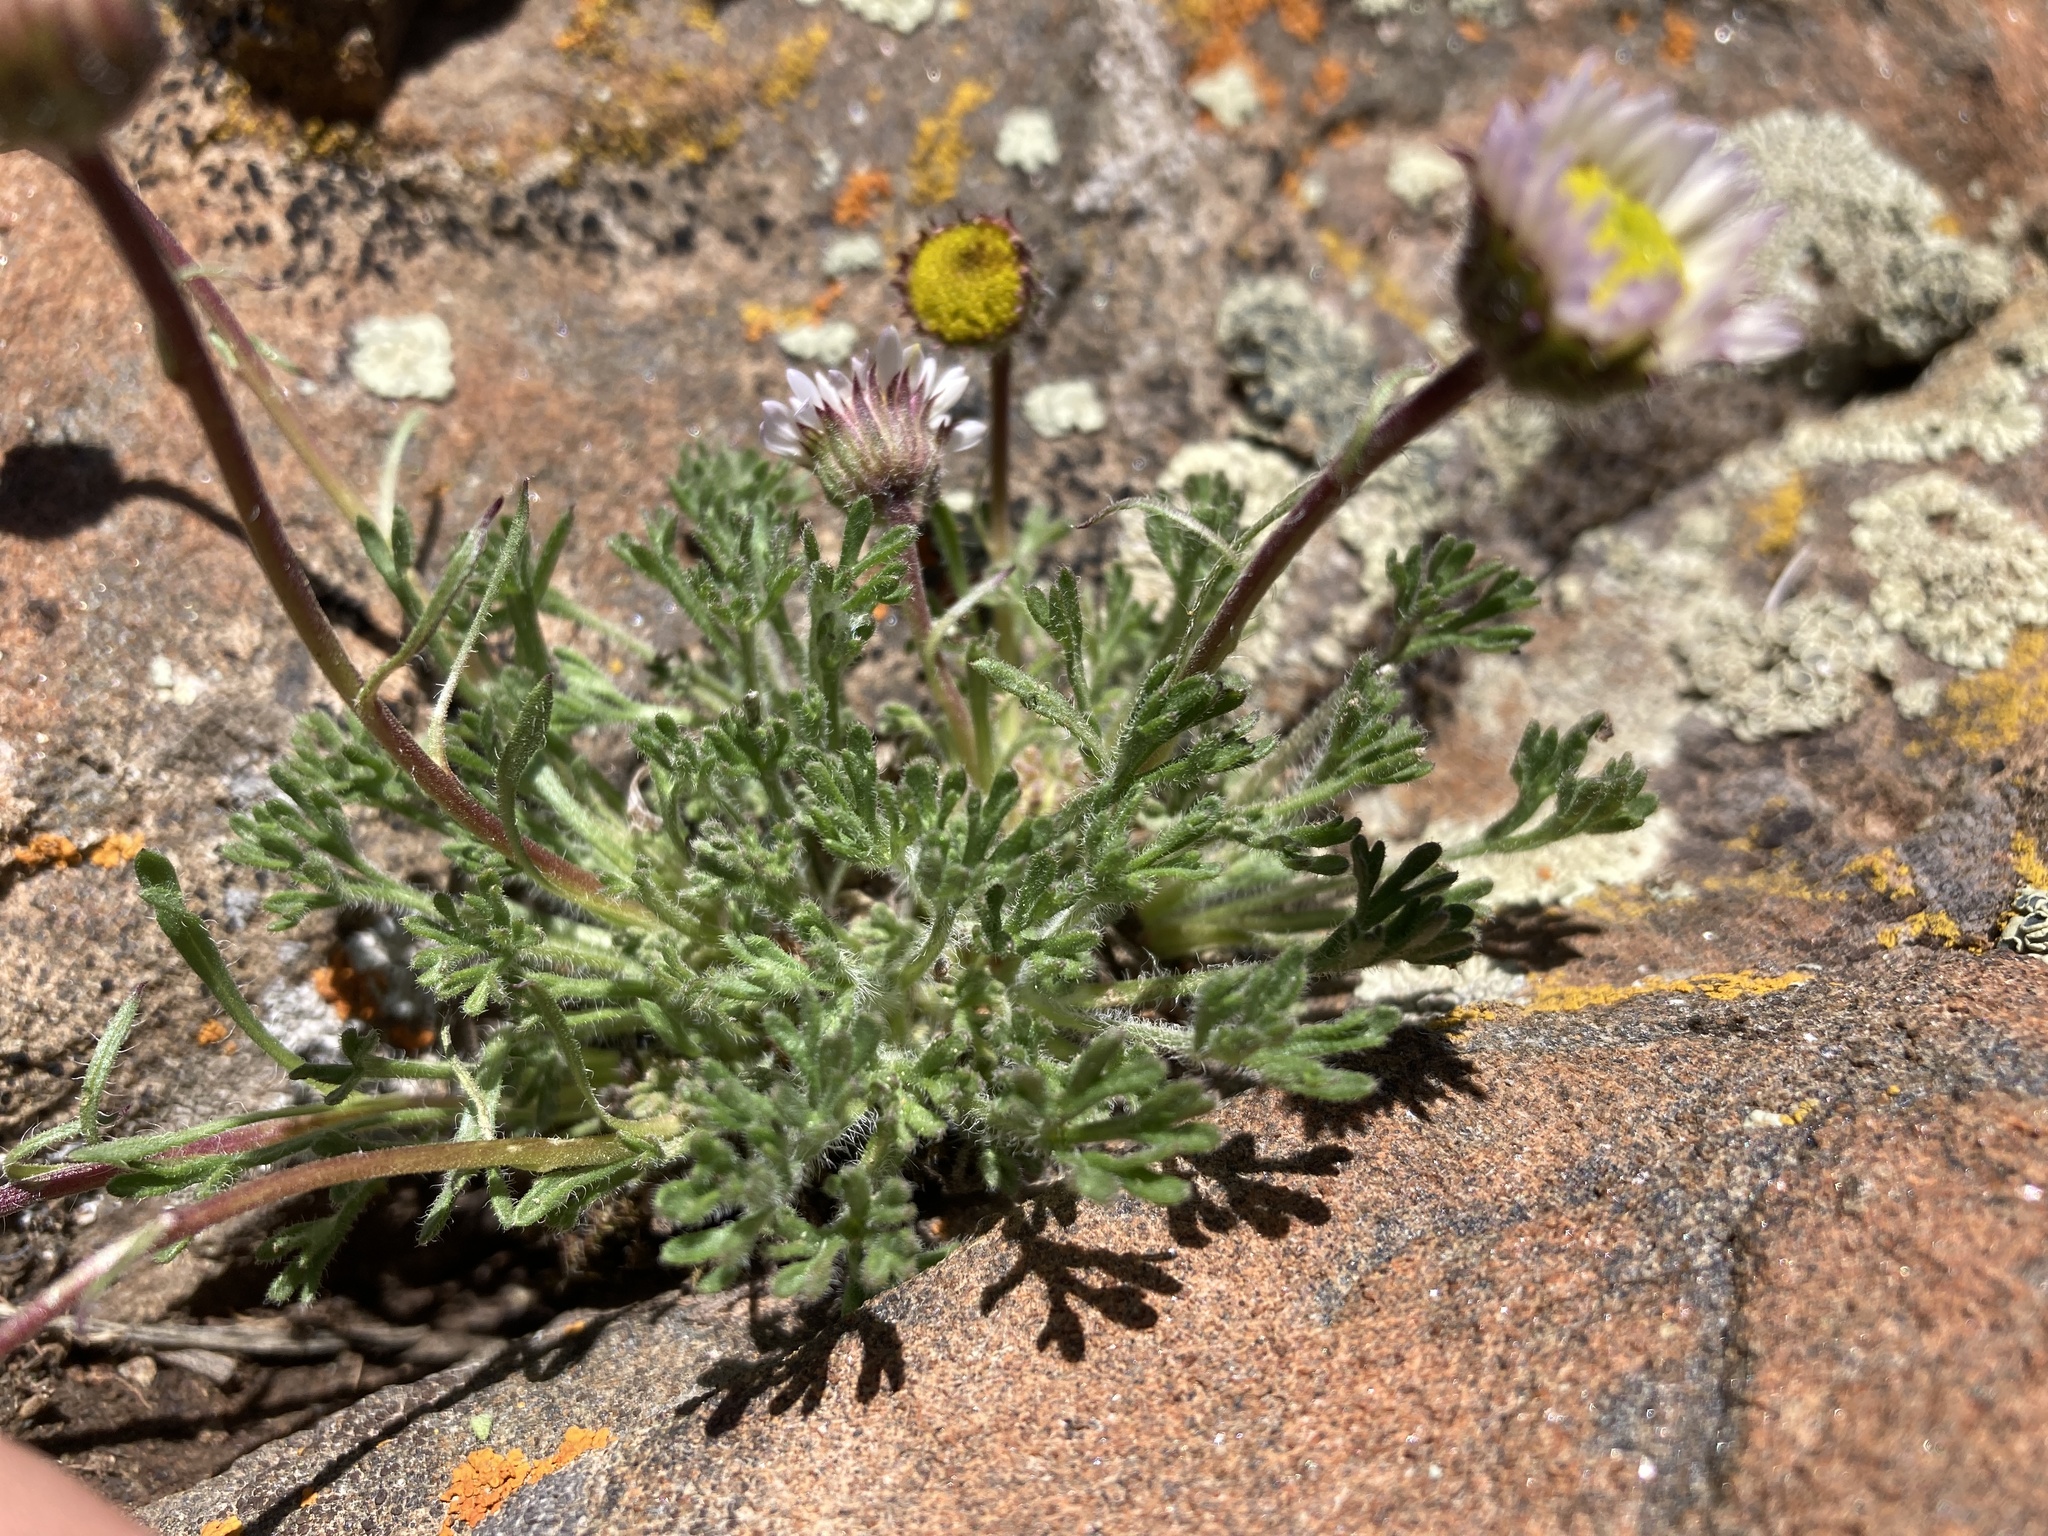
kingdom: Plantae
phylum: Tracheophyta
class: Magnoliopsida
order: Asterales
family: Asteraceae
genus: Erigeron
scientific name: Erigeron compositus
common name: Dwarf mountain fleabane
